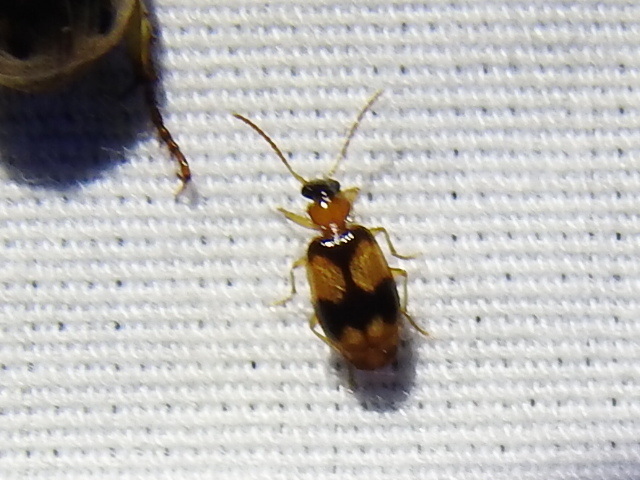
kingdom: Animalia
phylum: Arthropoda
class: Insecta
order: Coleoptera
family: Carabidae
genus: Lebia
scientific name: Lebia pulchella
